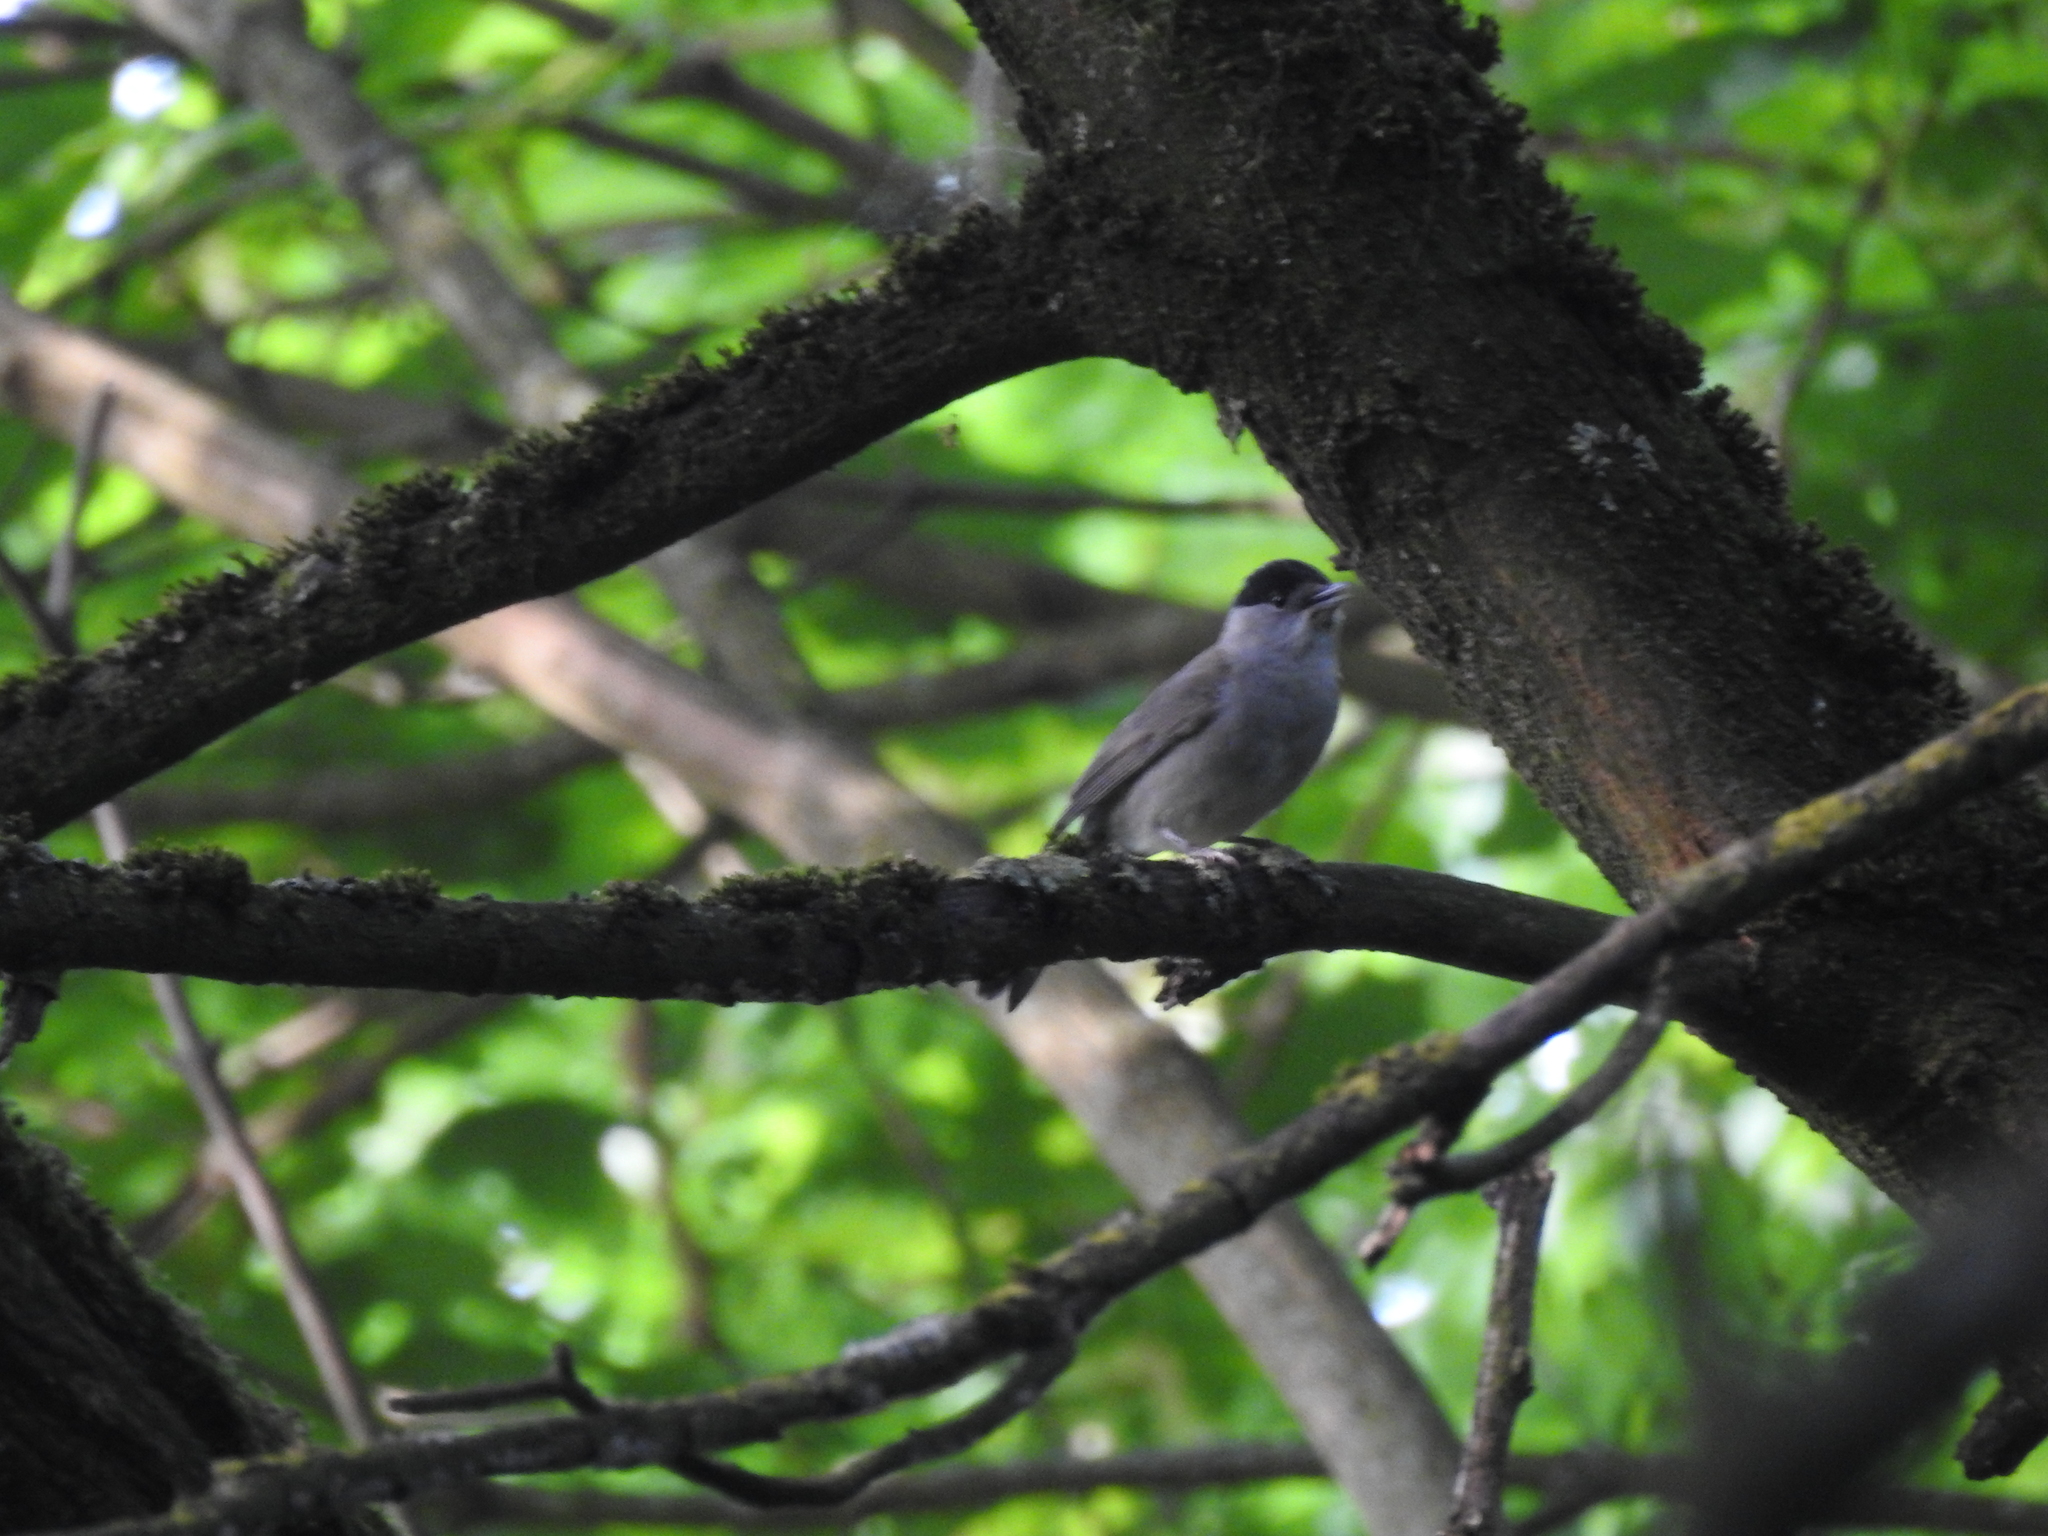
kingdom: Animalia
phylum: Chordata
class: Aves
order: Passeriformes
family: Sylviidae
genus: Sylvia
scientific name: Sylvia atricapilla
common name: Eurasian blackcap
